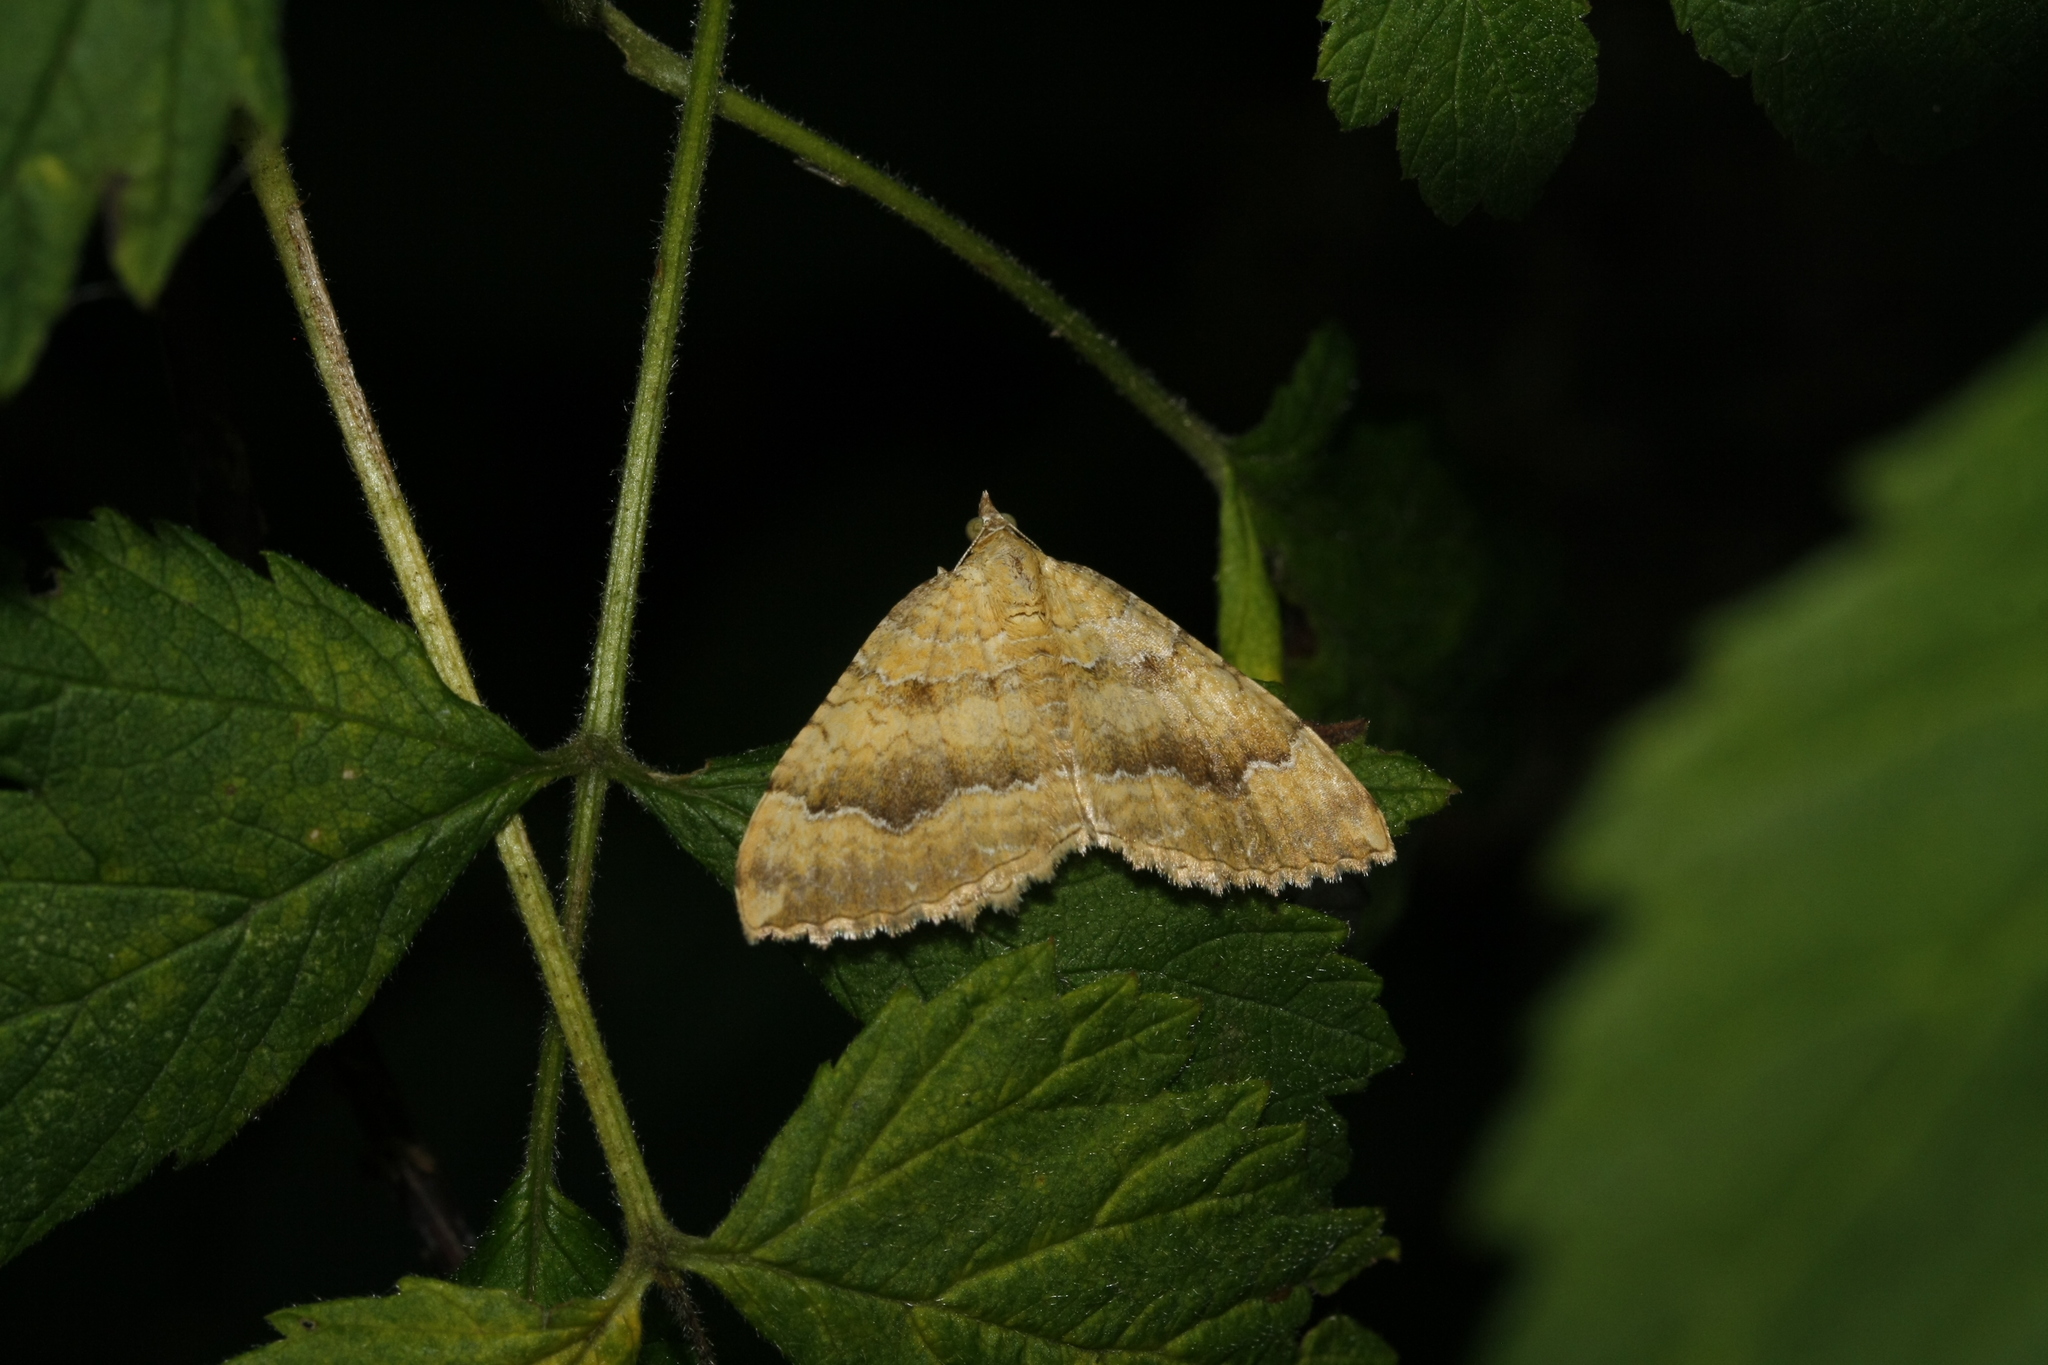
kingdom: Animalia
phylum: Arthropoda
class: Insecta
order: Lepidoptera
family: Geometridae
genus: Camptogramma
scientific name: Camptogramma bilineata
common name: Yellow shell
